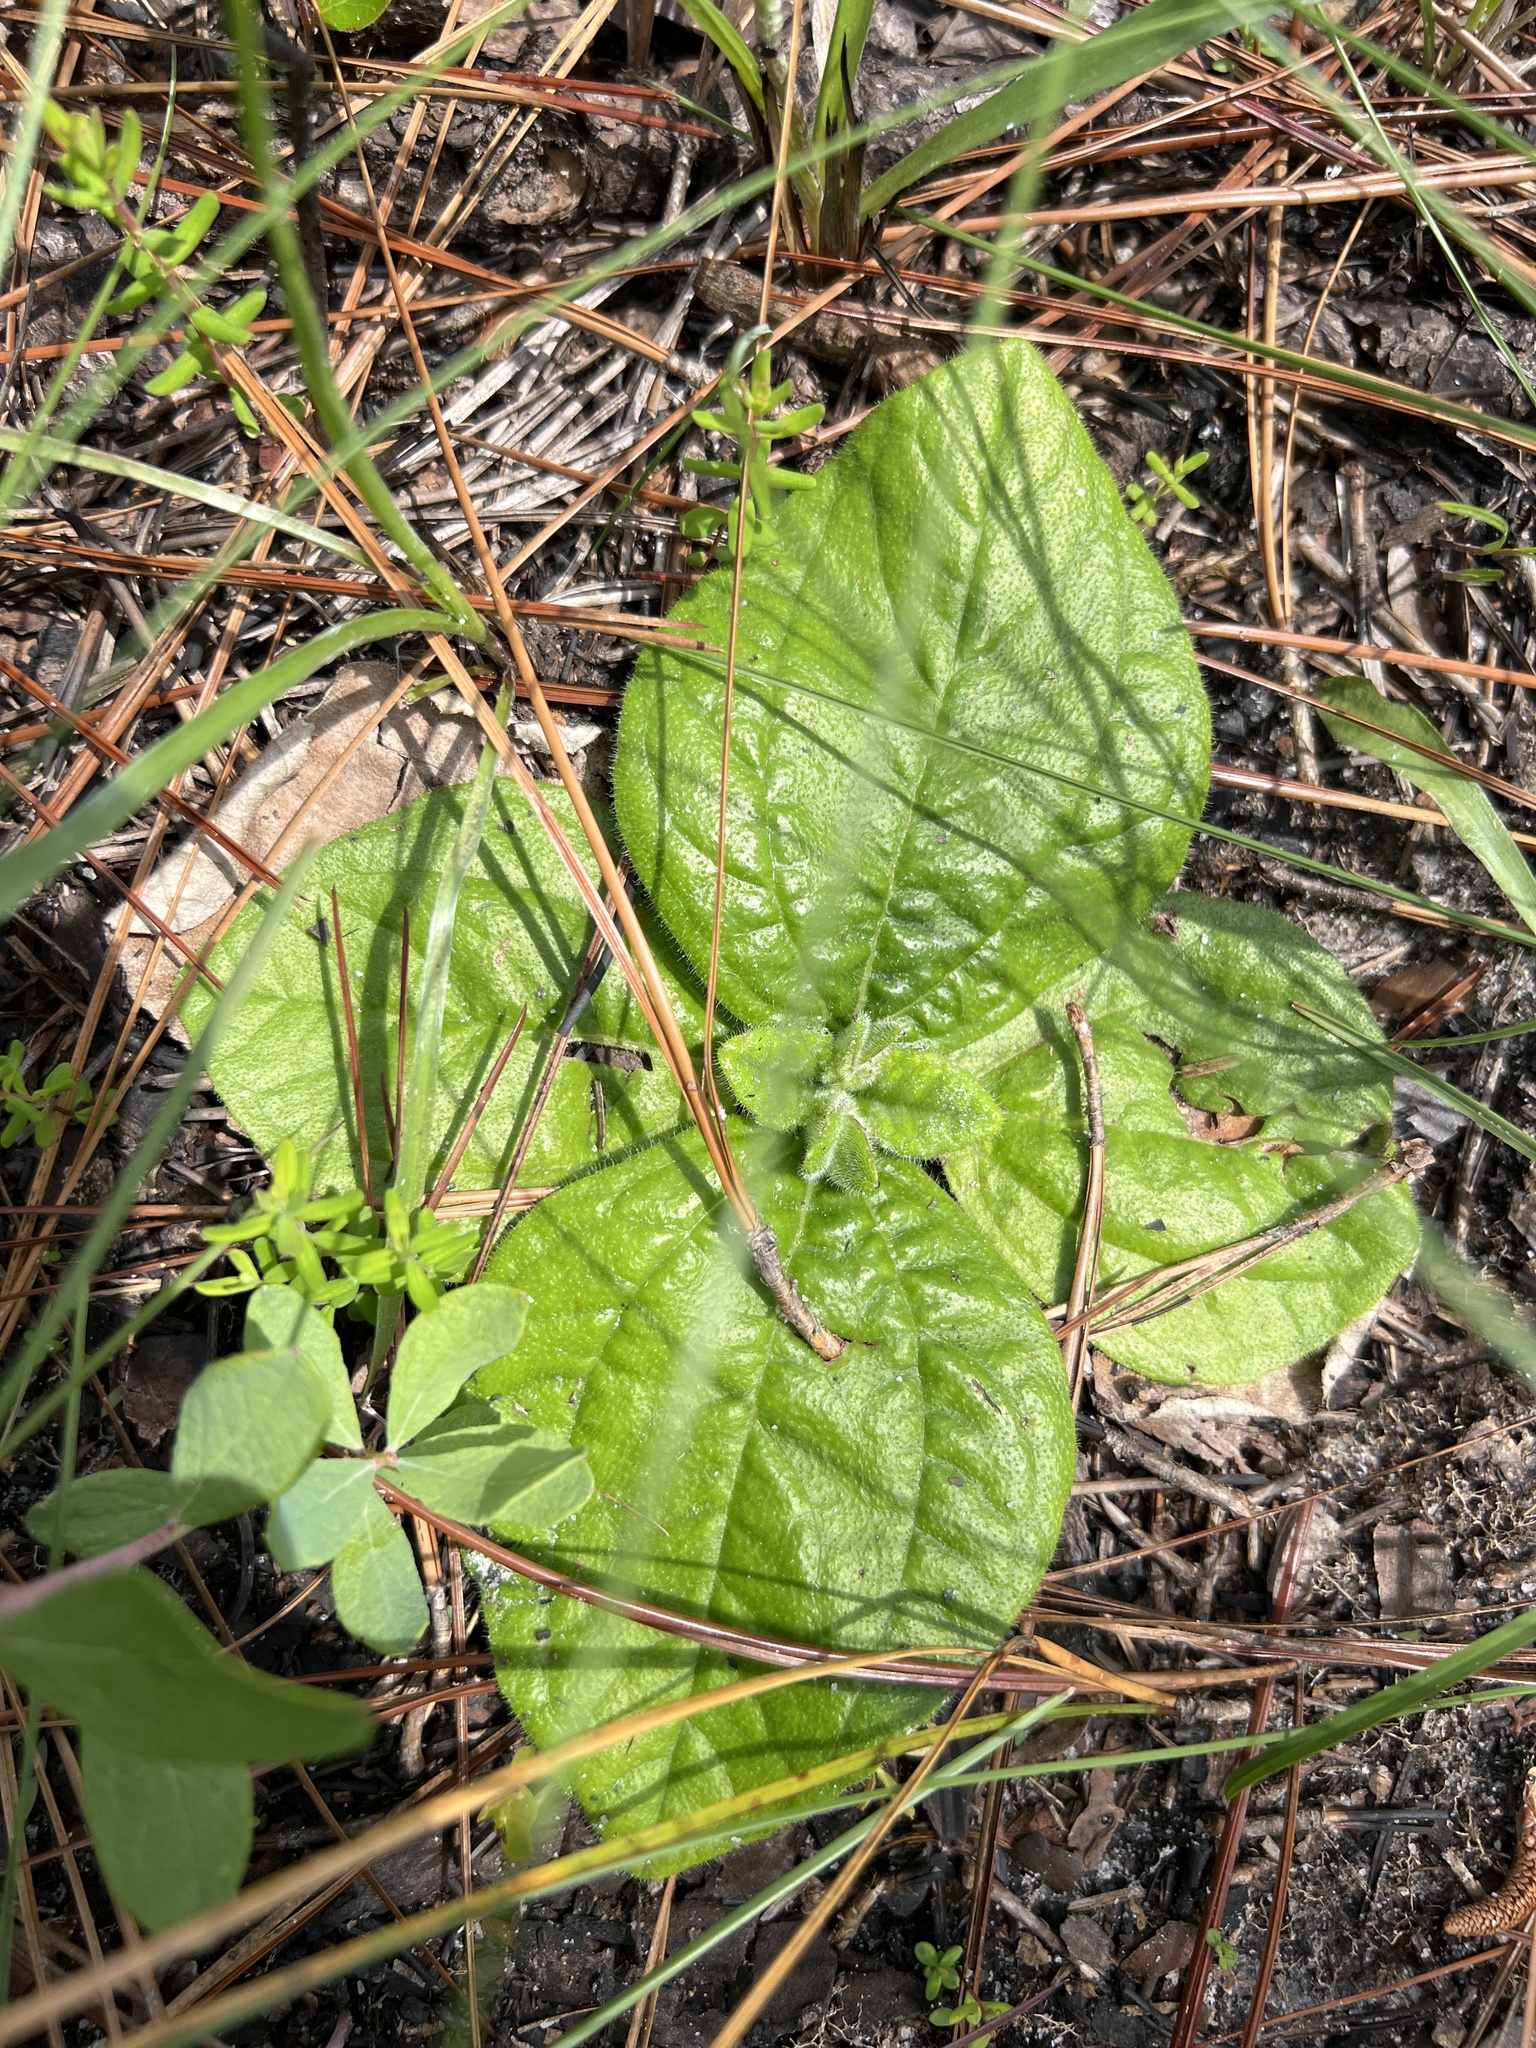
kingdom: Plantae
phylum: Tracheophyta
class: Magnoliopsida
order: Asterales
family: Asteraceae
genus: Helianthus
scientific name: Helianthus radula
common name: Pineland sunflower
